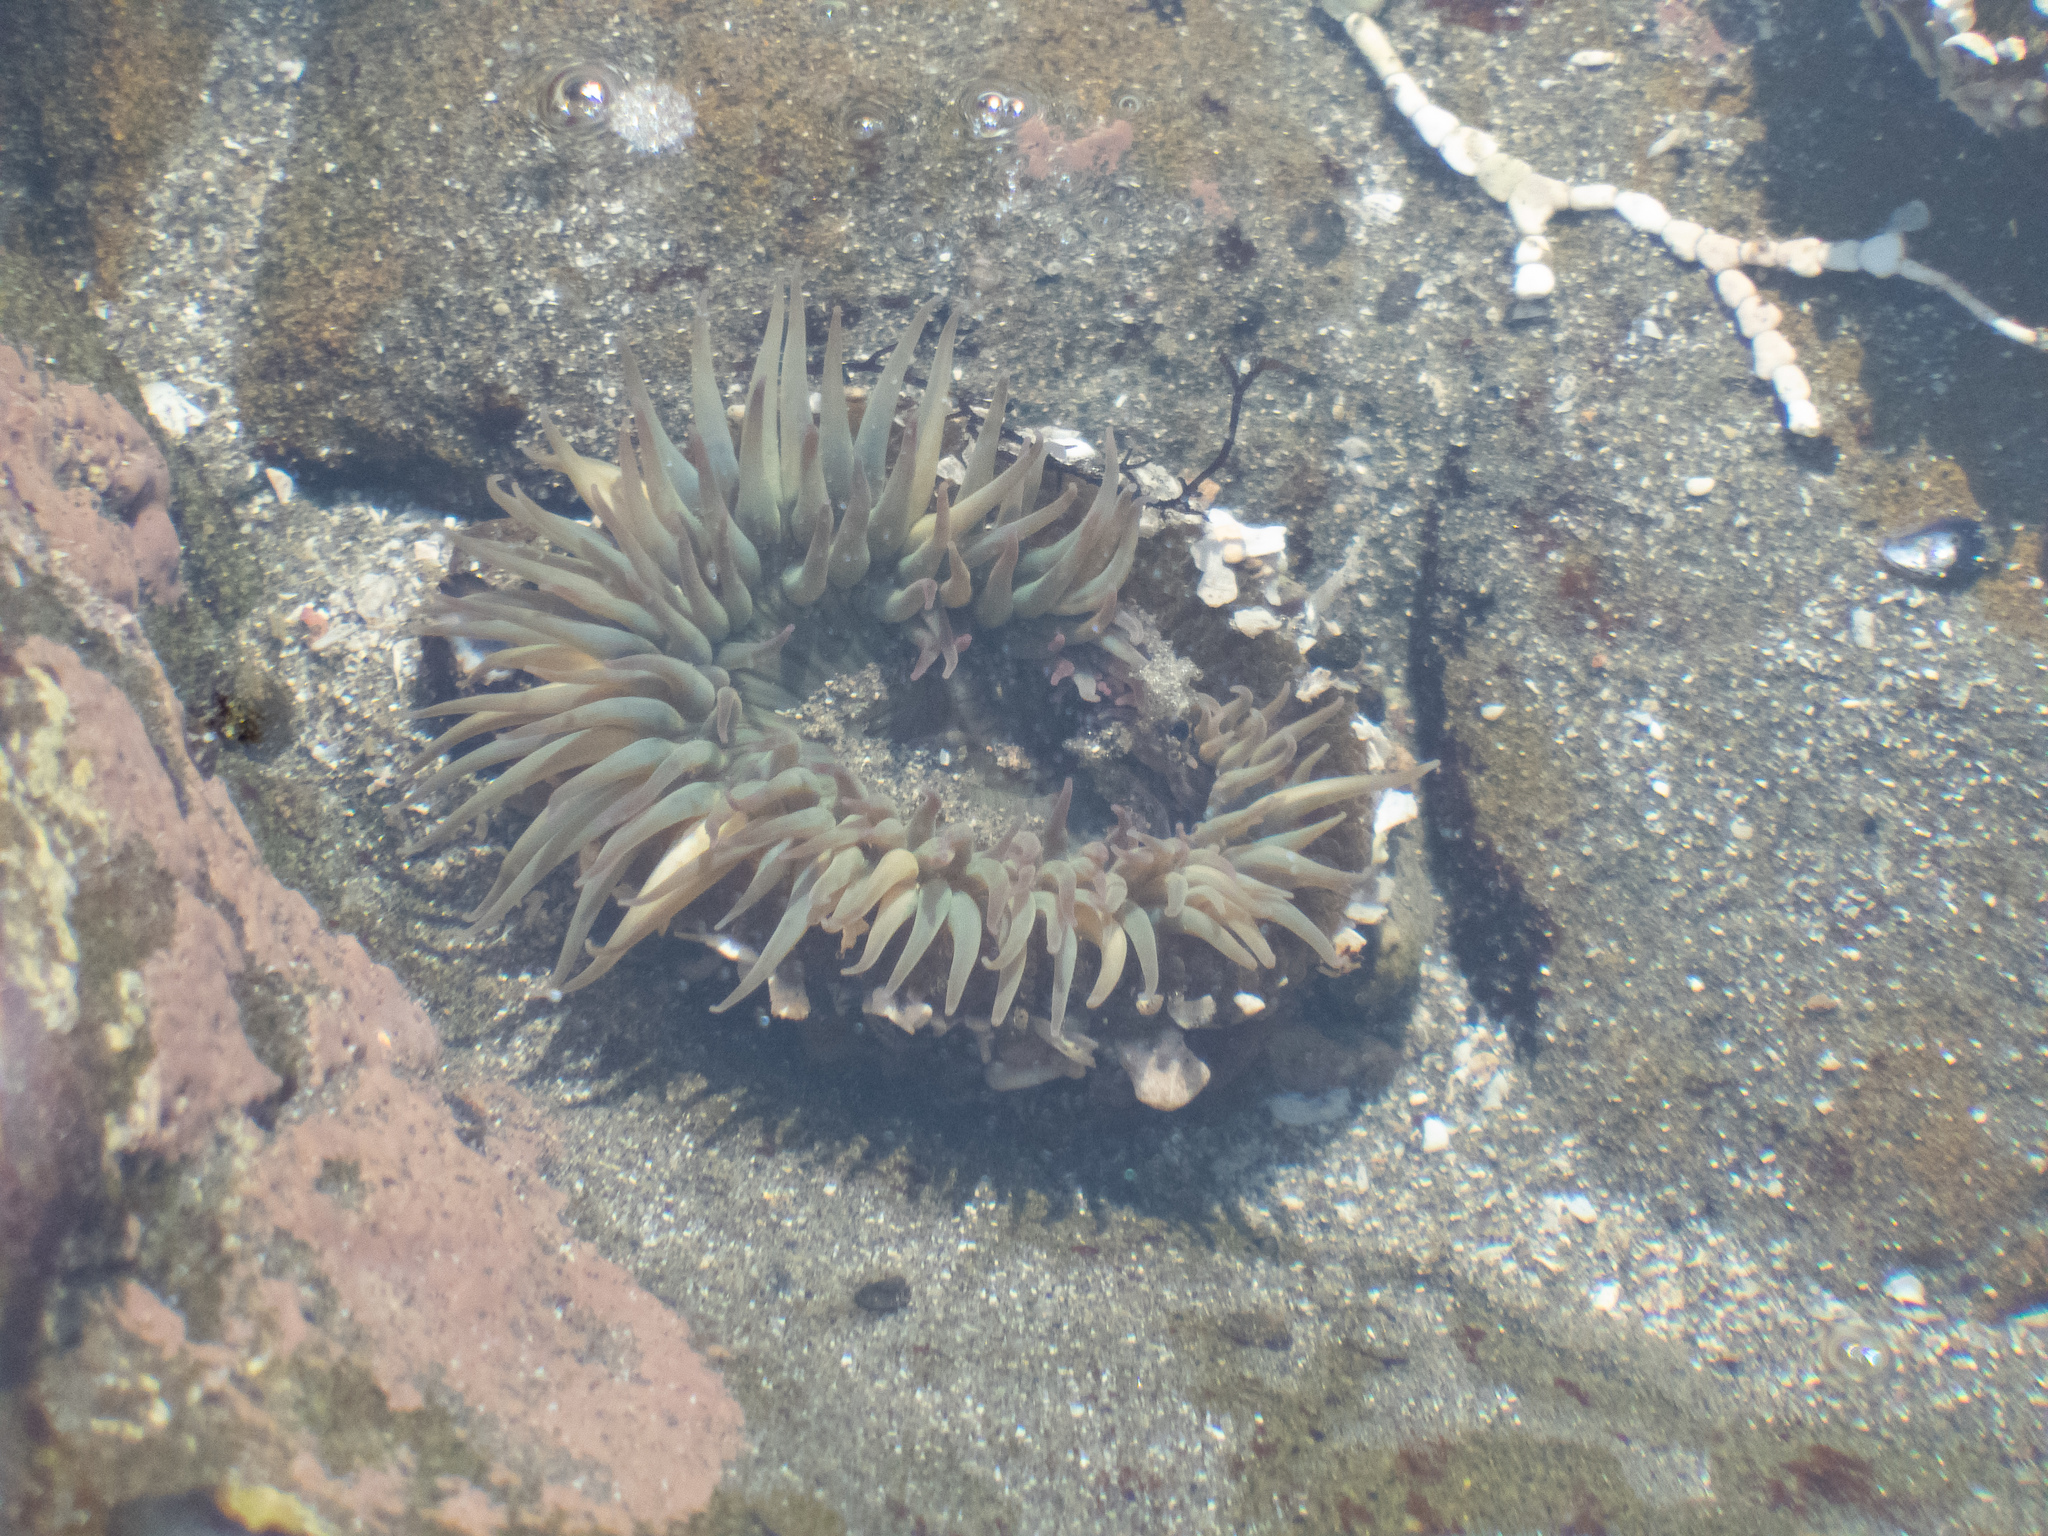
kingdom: Animalia
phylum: Cnidaria
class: Anthozoa
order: Actiniaria
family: Actiniidae
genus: Anthopleura
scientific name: Anthopleura sola
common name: Sun anemone
